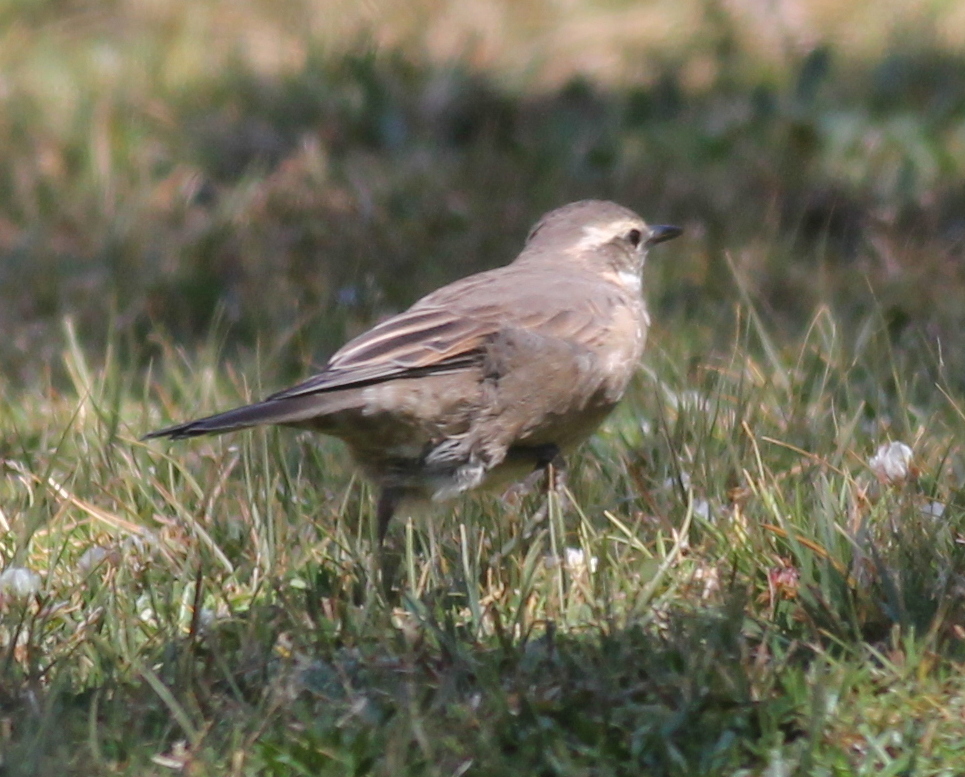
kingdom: Animalia
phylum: Chordata
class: Aves
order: Passeriformes
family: Furnariidae
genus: Cinclodes
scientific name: Cinclodes fuscus
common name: Buff-winged cinclodes
